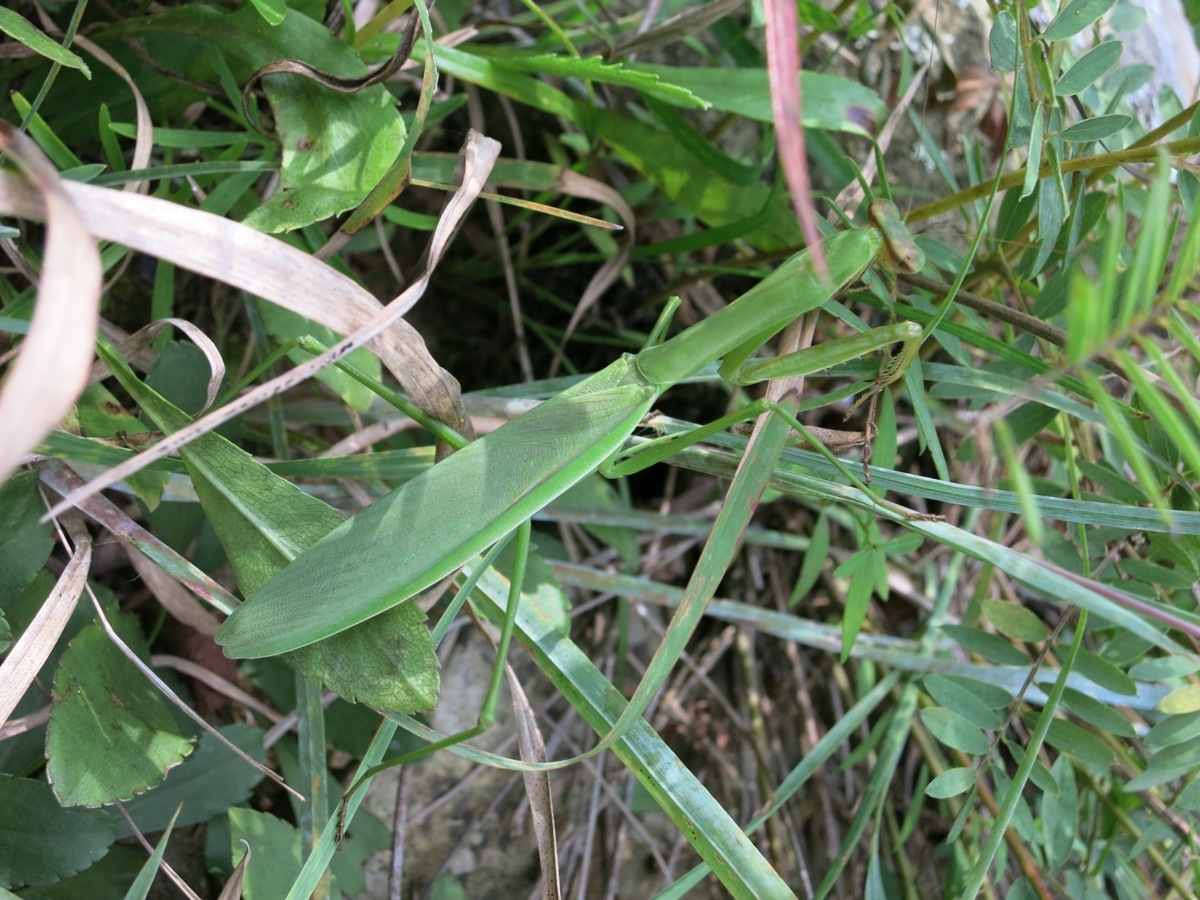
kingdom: Animalia
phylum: Arthropoda
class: Insecta
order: Mantodea
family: Mantidae
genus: Tenodera
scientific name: Tenodera sinensis
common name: Chinese mantis
